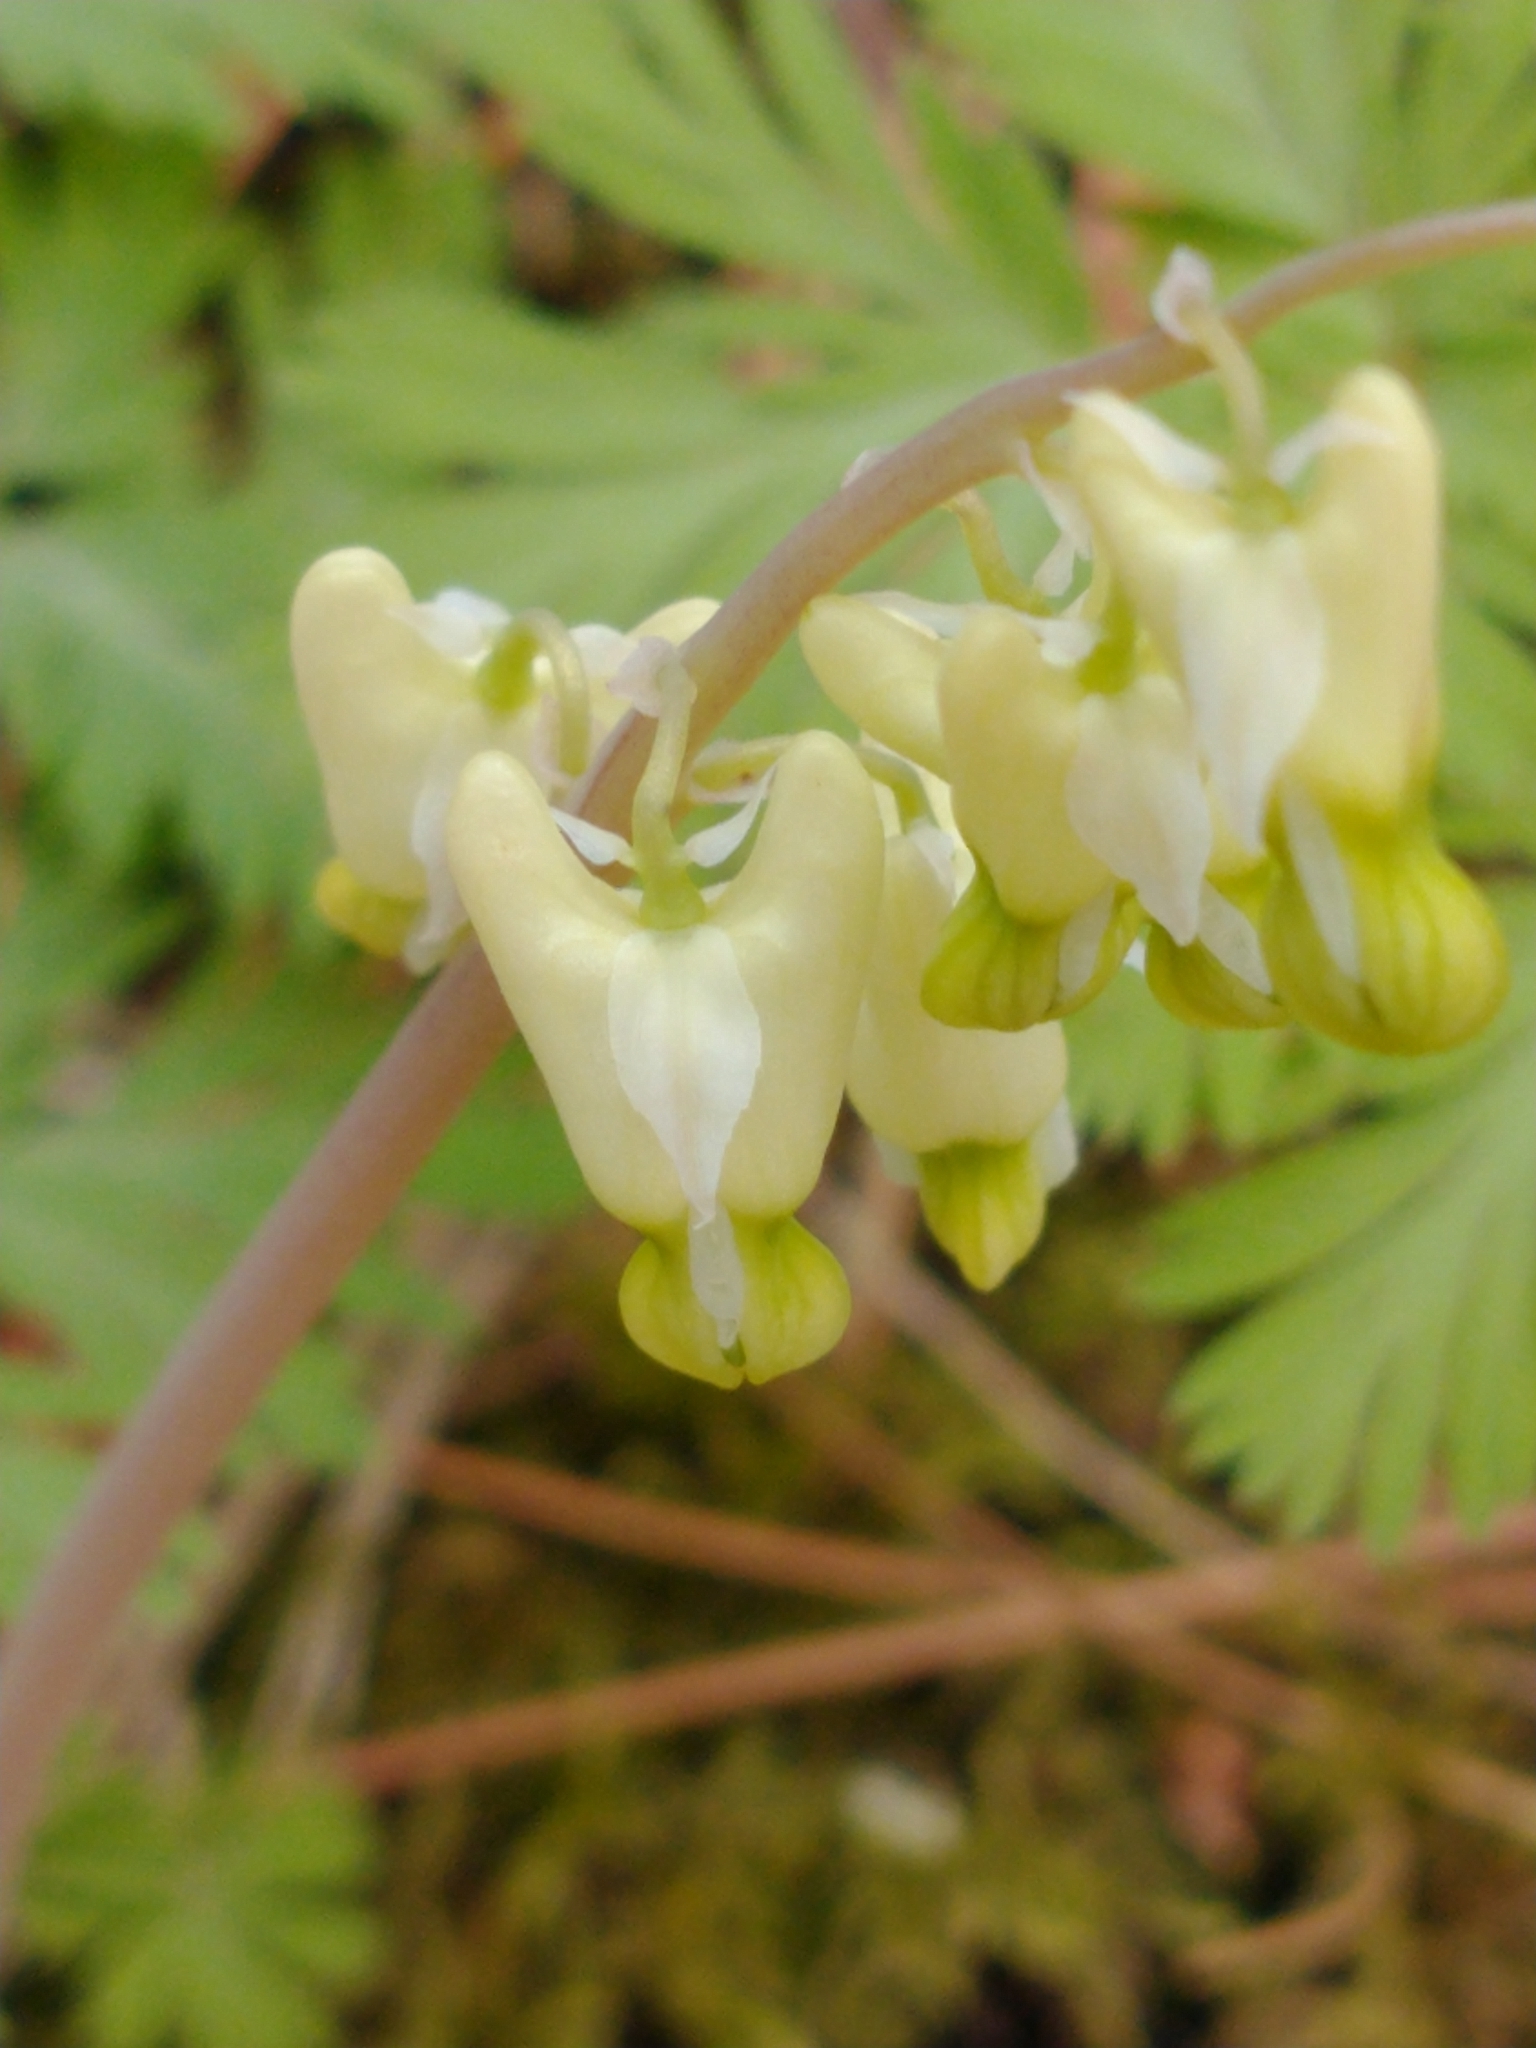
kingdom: Plantae
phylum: Tracheophyta
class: Magnoliopsida
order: Ranunculales
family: Papaveraceae
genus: Dicentra
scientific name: Dicentra cucullaria
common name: Dutchman's breeches
